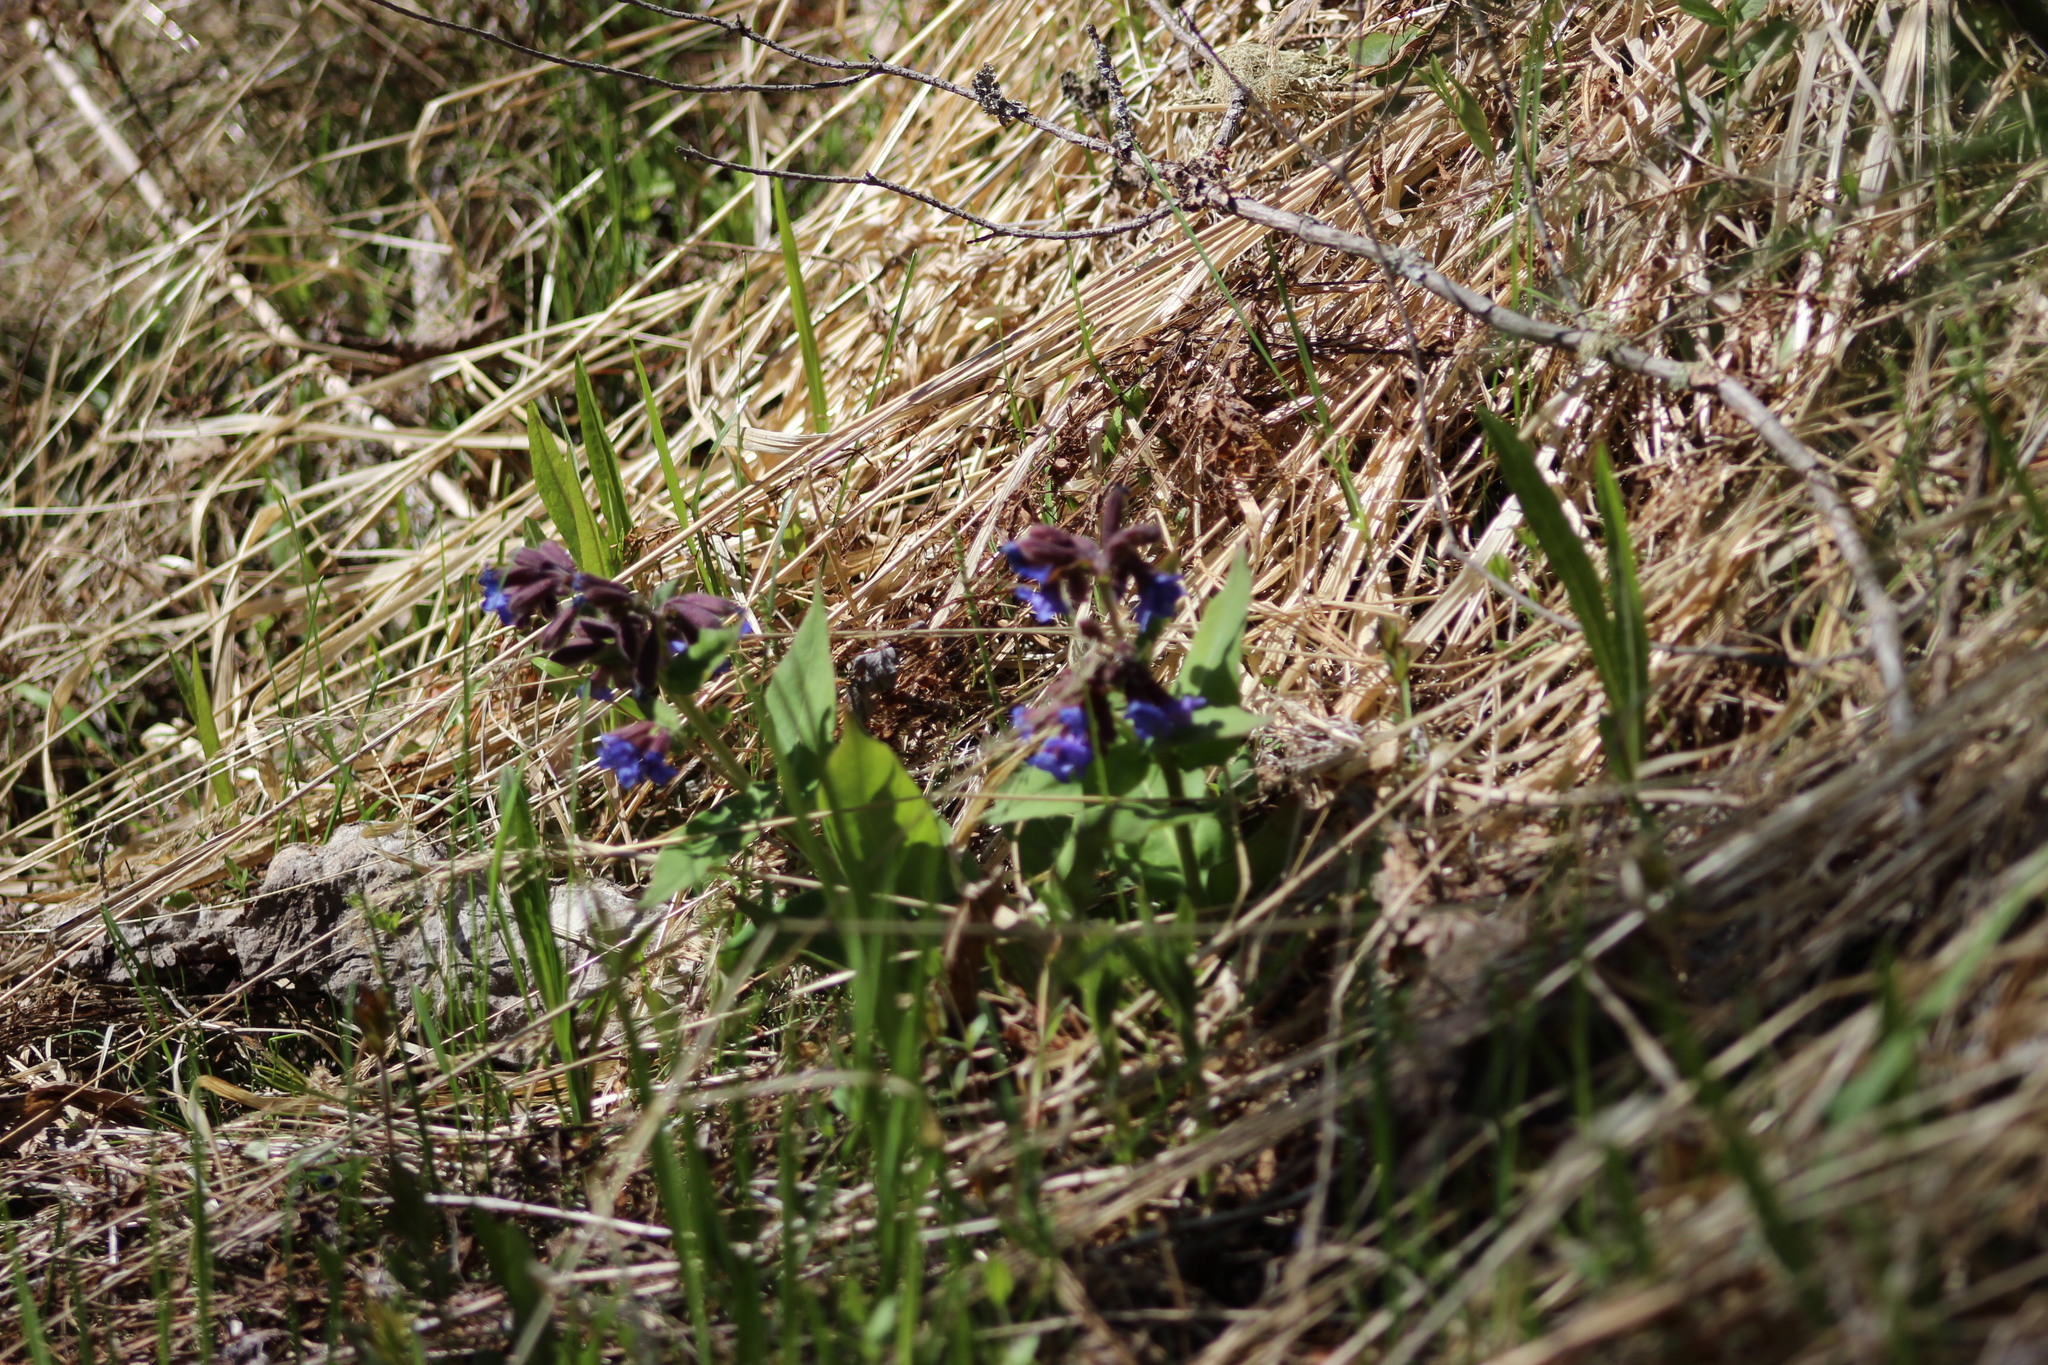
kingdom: Plantae
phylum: Tracheophyta
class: Magnoliopsida
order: Boraginales
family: Boraginaceae
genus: Pulmonaria
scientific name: Pulmonaria mollis
